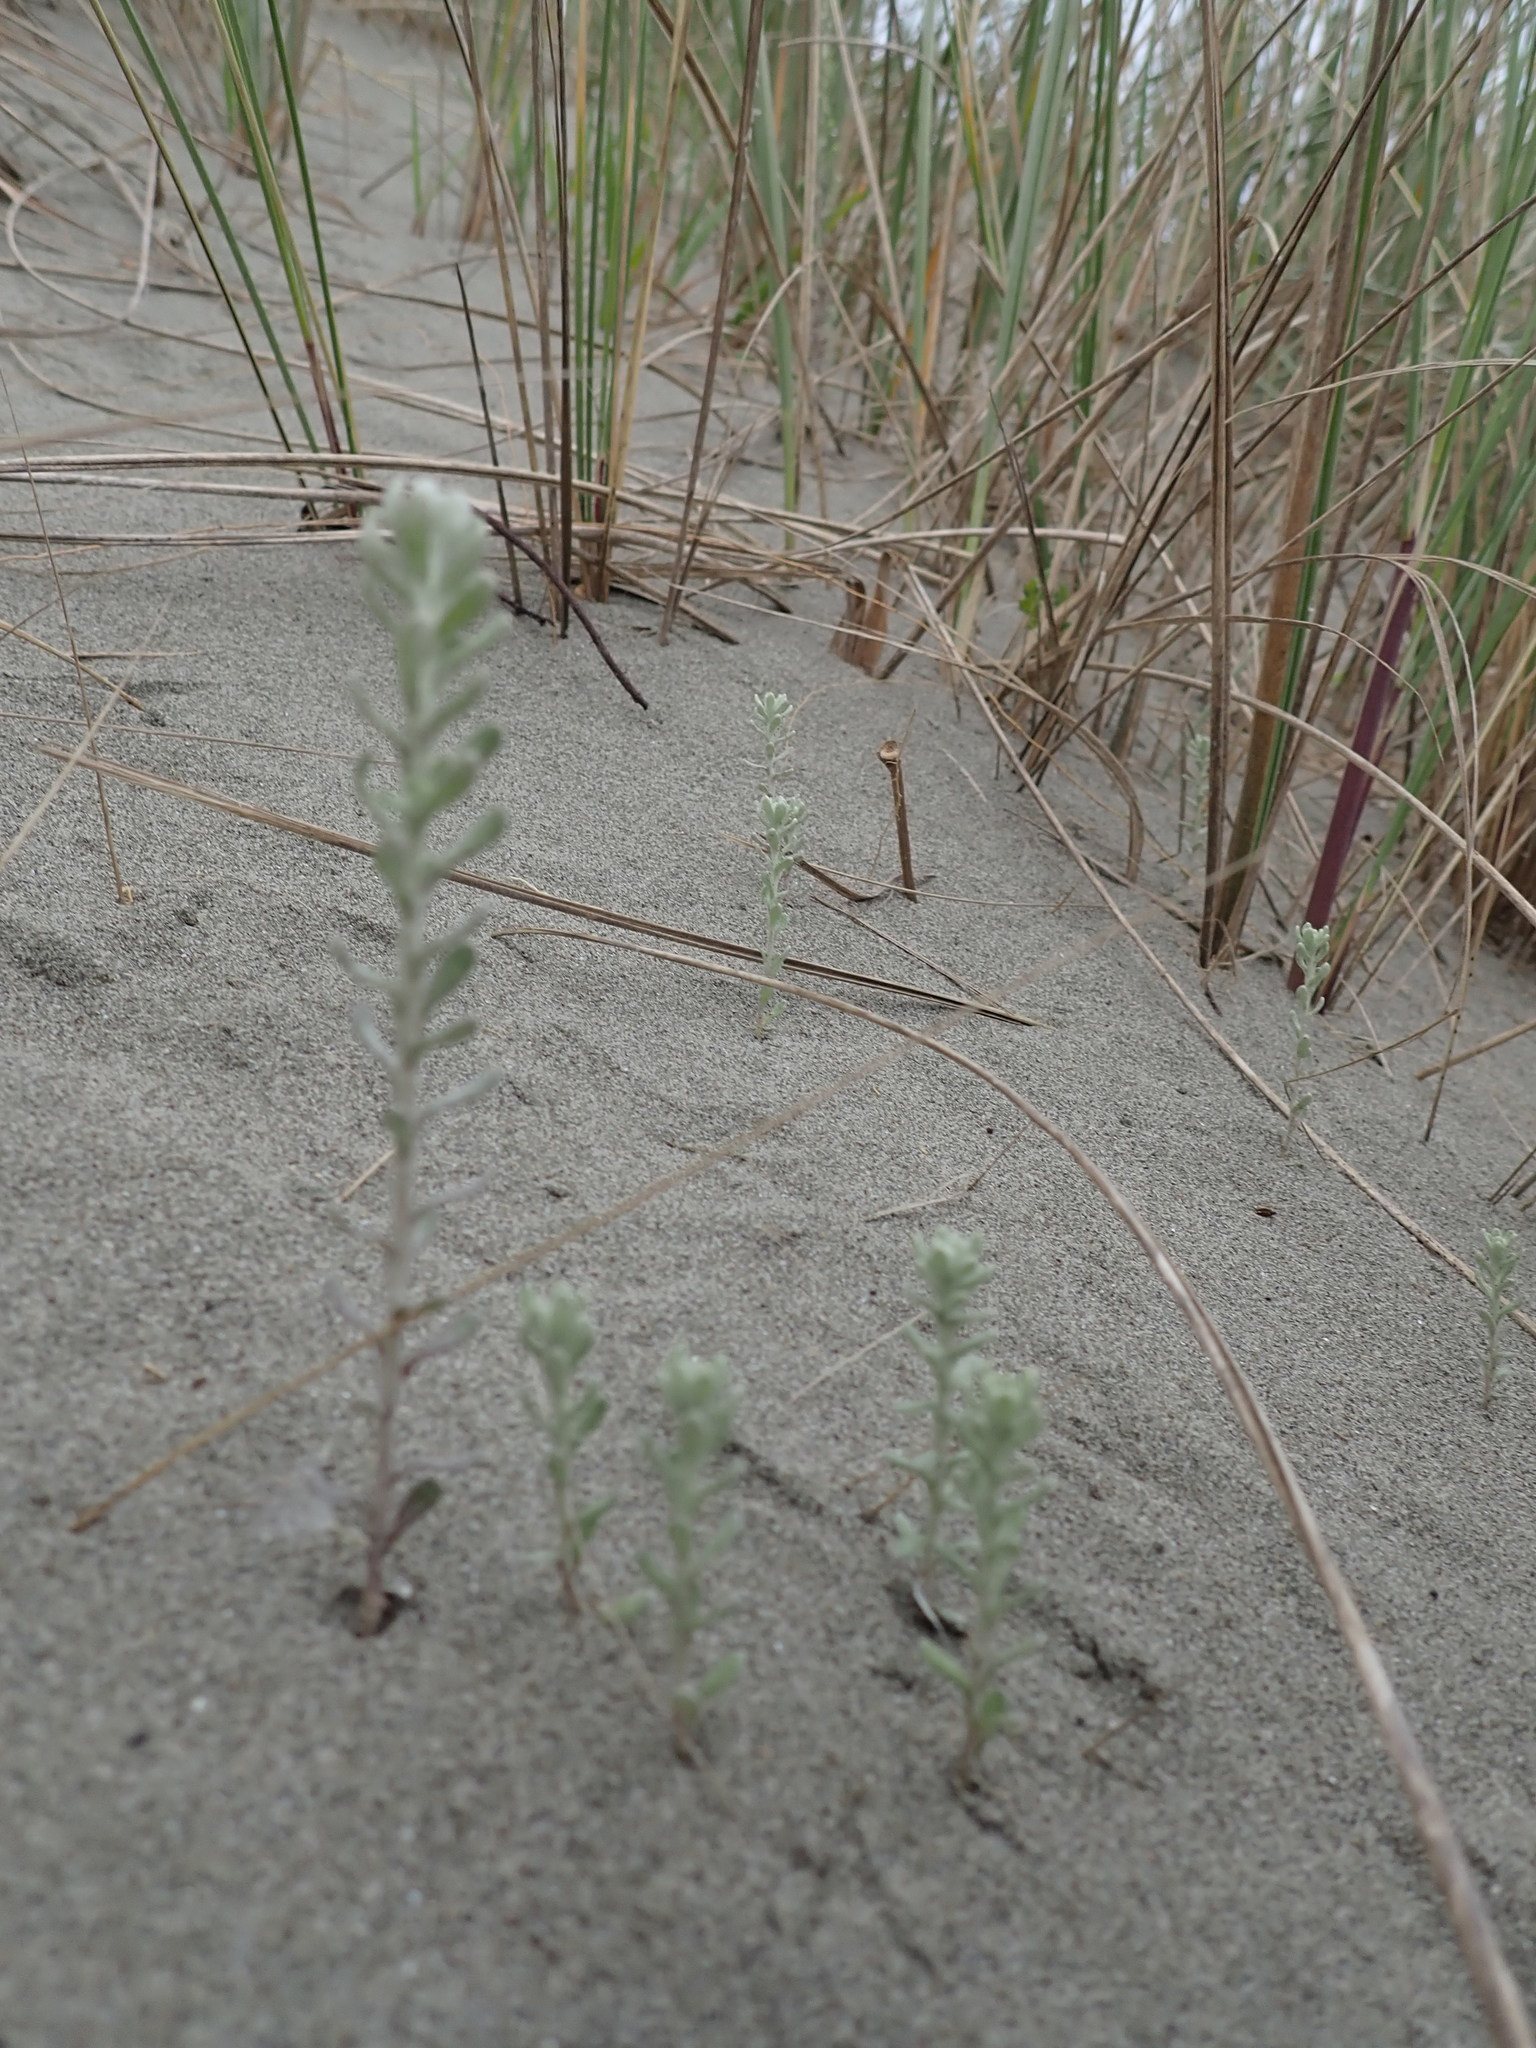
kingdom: Plantae
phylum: Tracheophyta
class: Magnoliopsida
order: Asterales
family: Asteraceae
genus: Ozothamnus
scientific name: Ozothamnus leptophyllus
